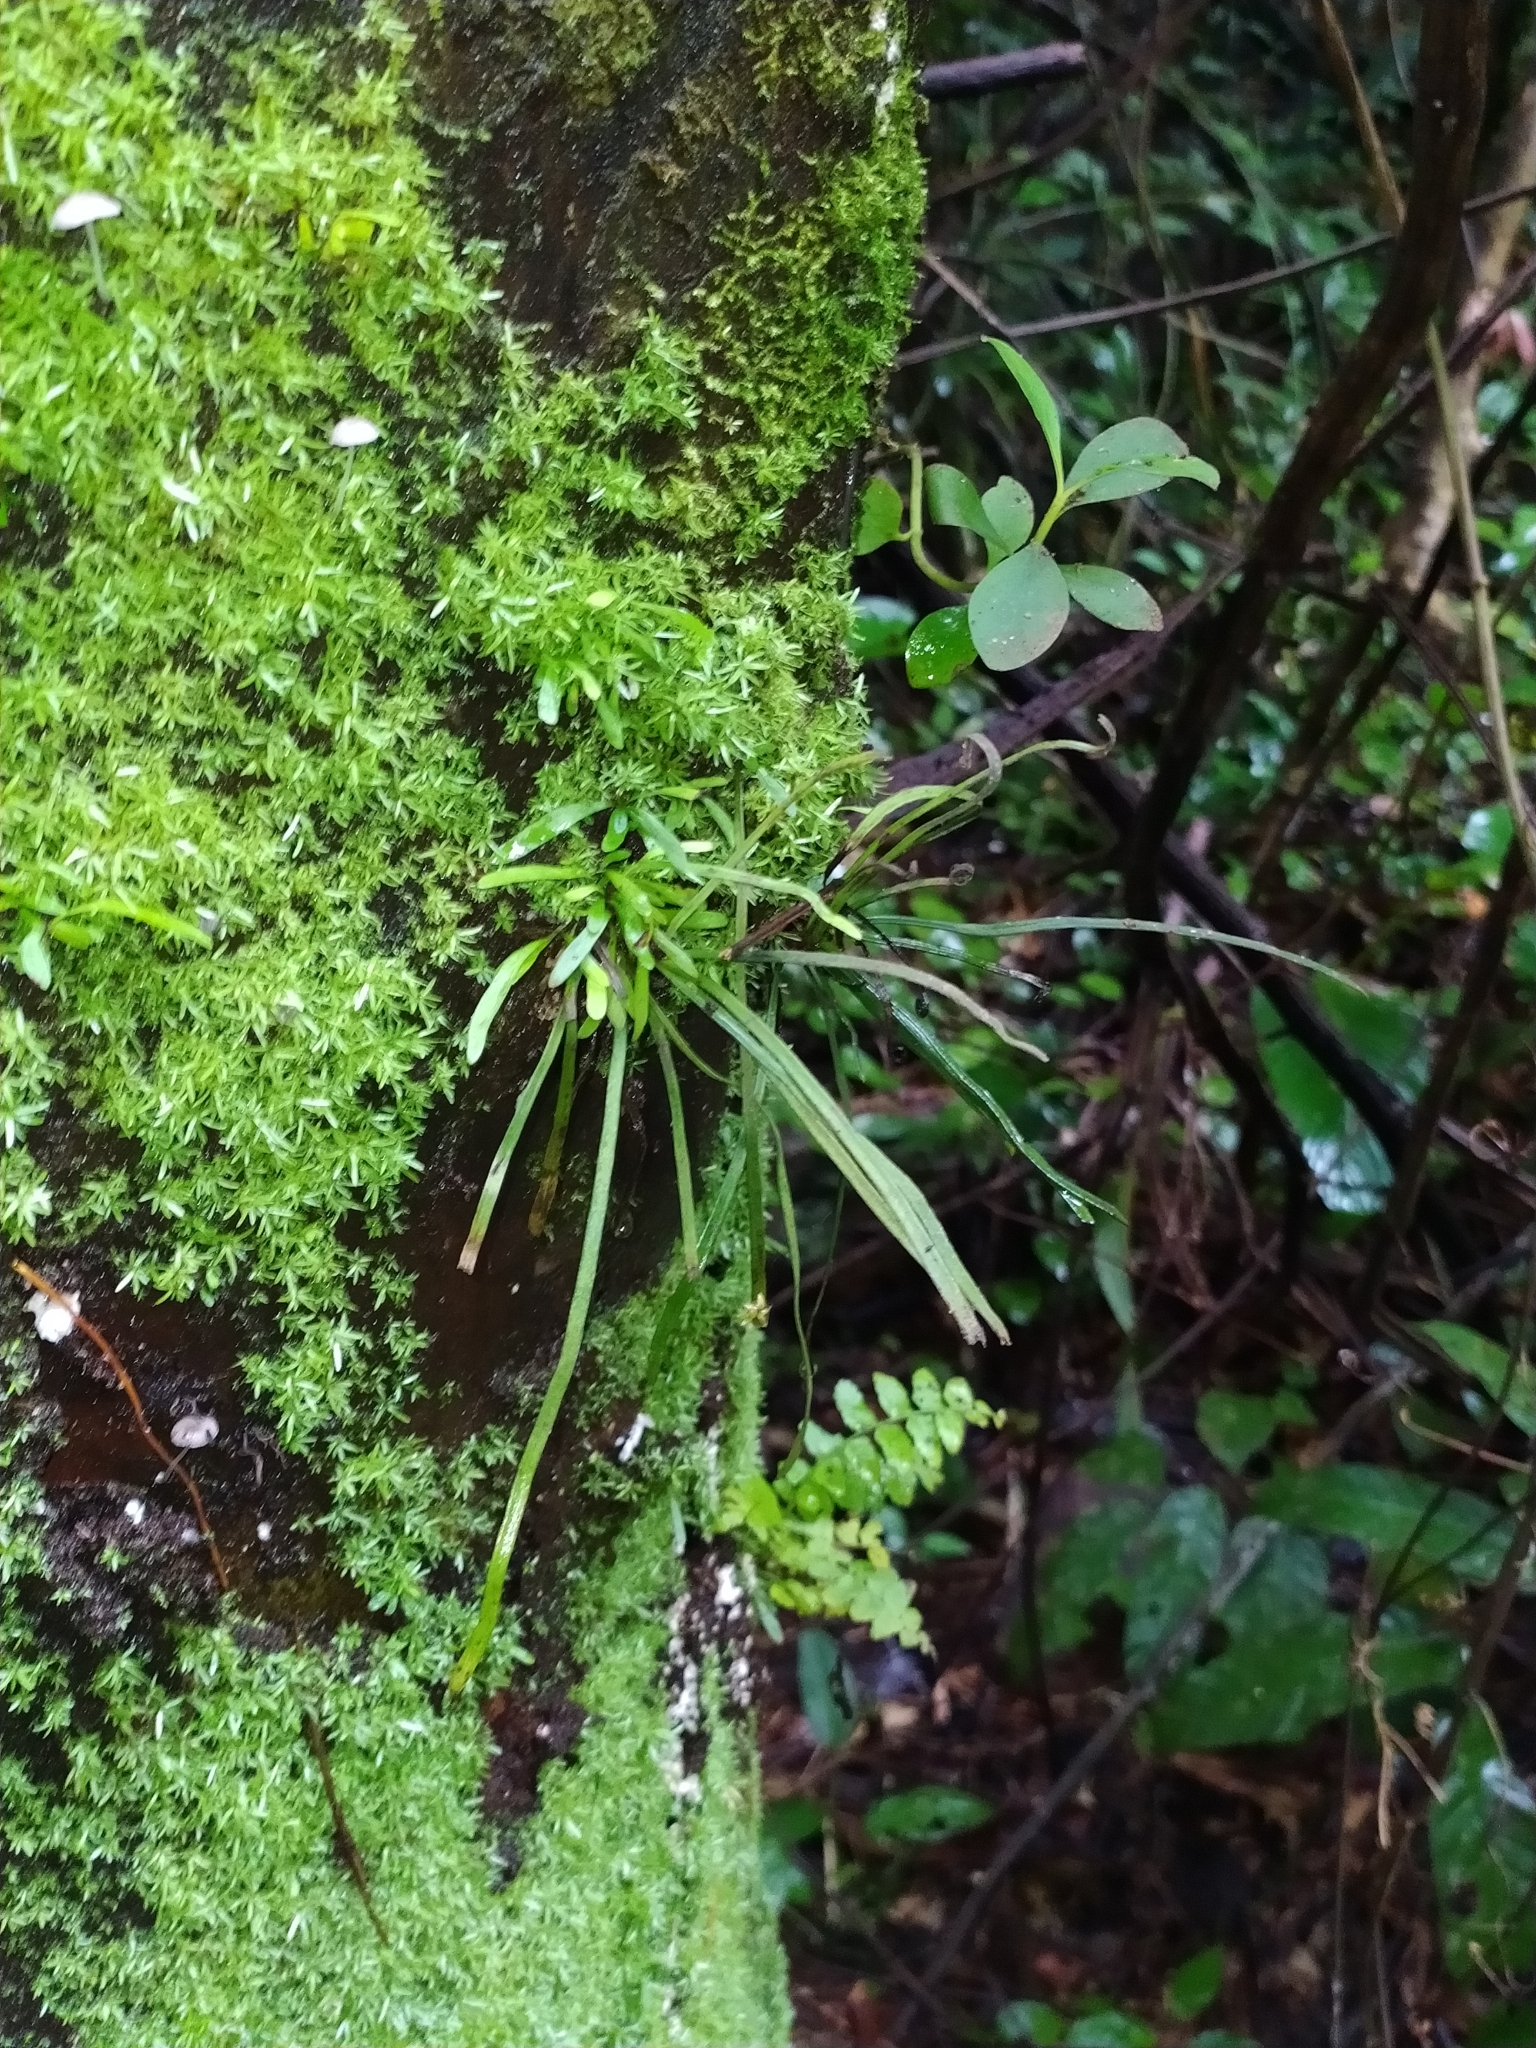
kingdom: Plantae
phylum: Tracheophyta
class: Polypodiopsida
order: Polypodiales
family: Pteridaceae
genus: Vittaria
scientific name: Vittaria lineata
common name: Shoestring fern
